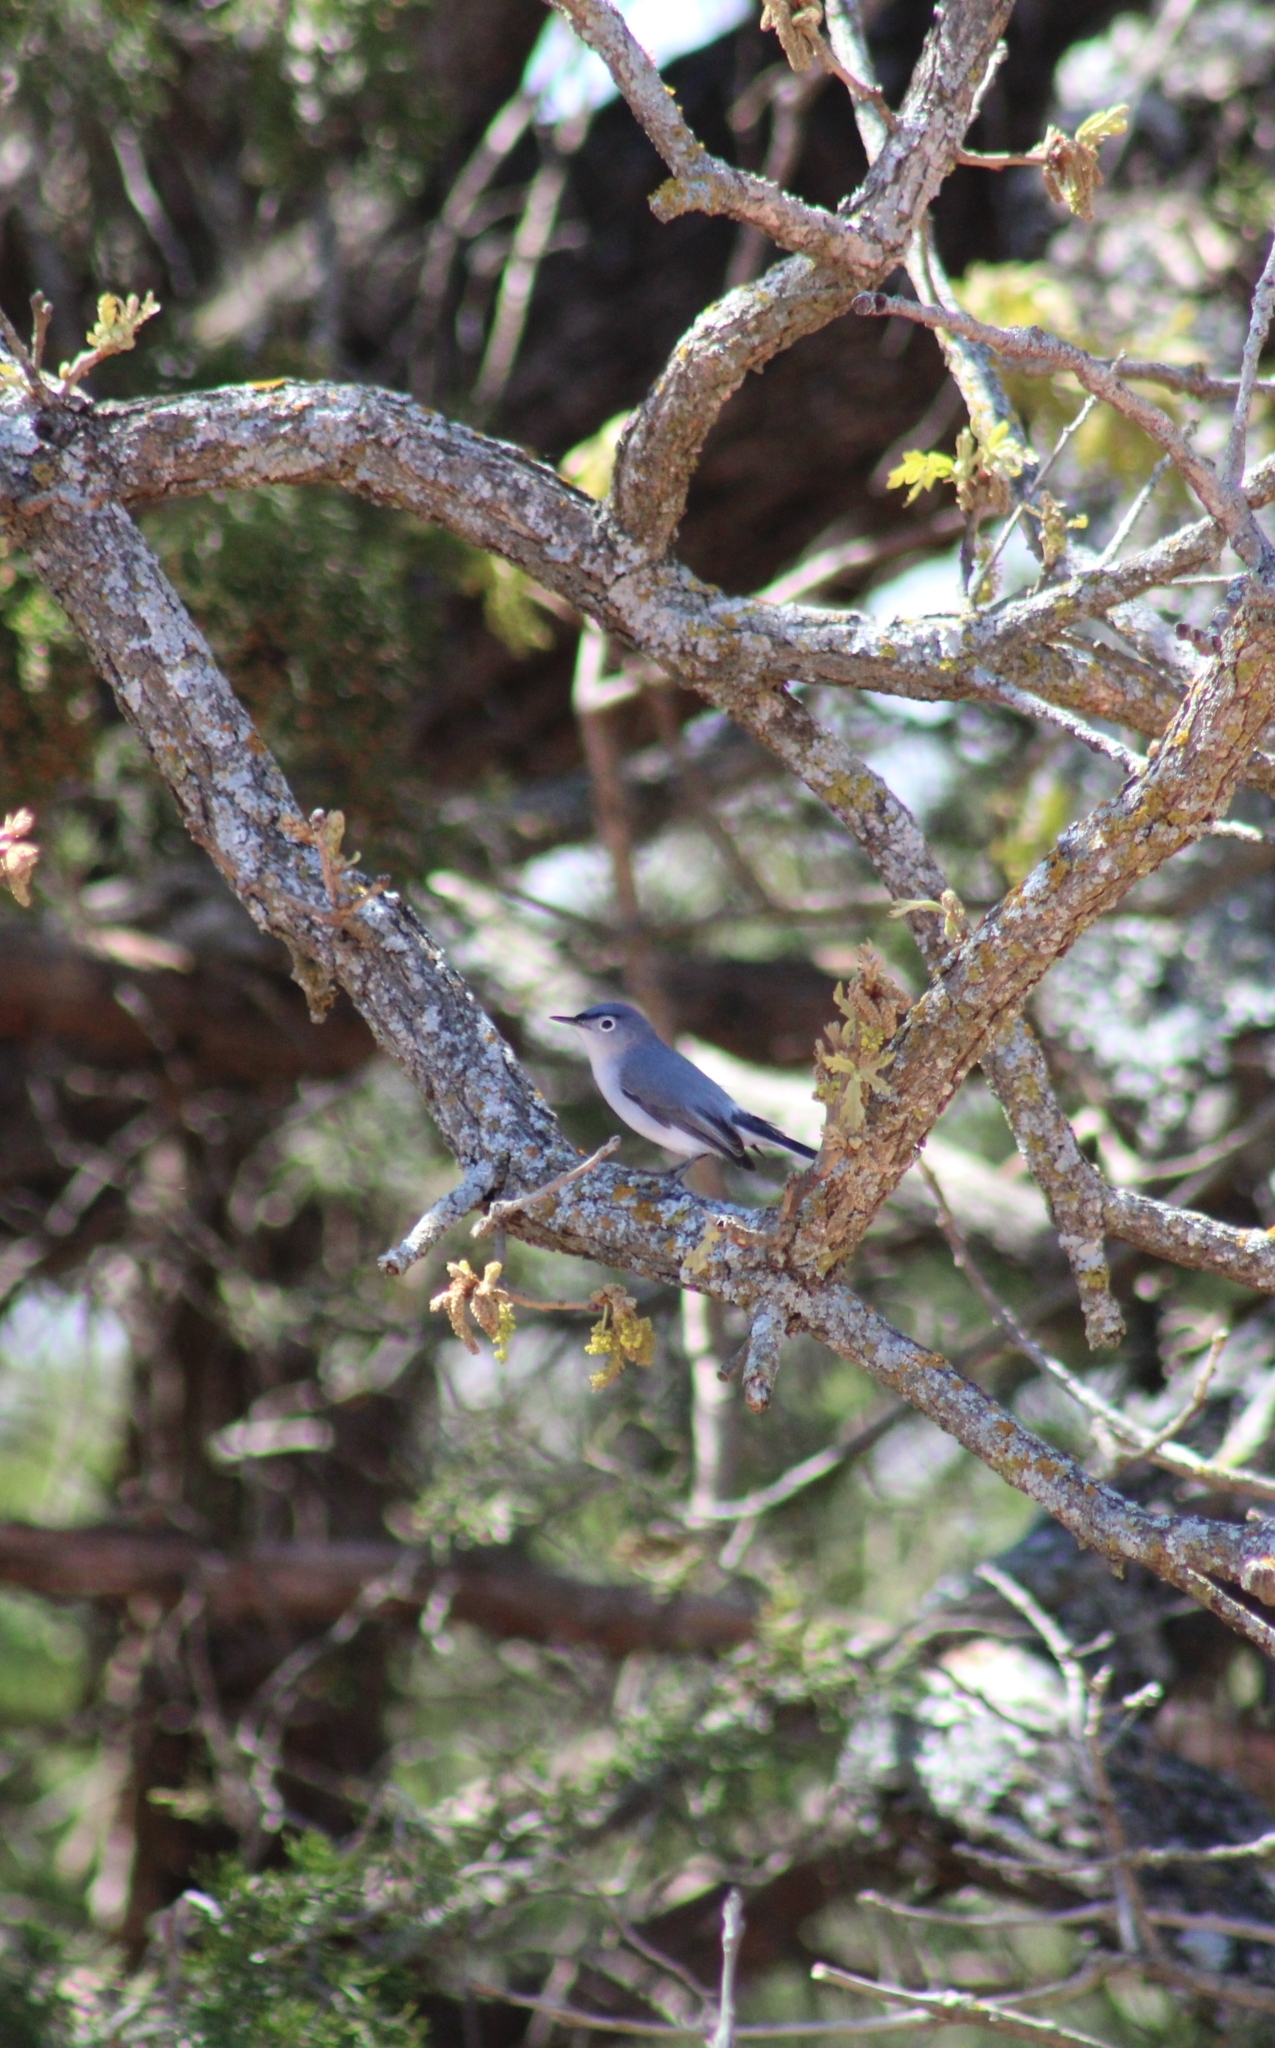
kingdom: Animalia
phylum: Chordata
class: Aves
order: Passeriformes
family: Polioptilidae
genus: Polioptila
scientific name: Polioptila caerulea
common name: Blue-gray gnatcatcher
